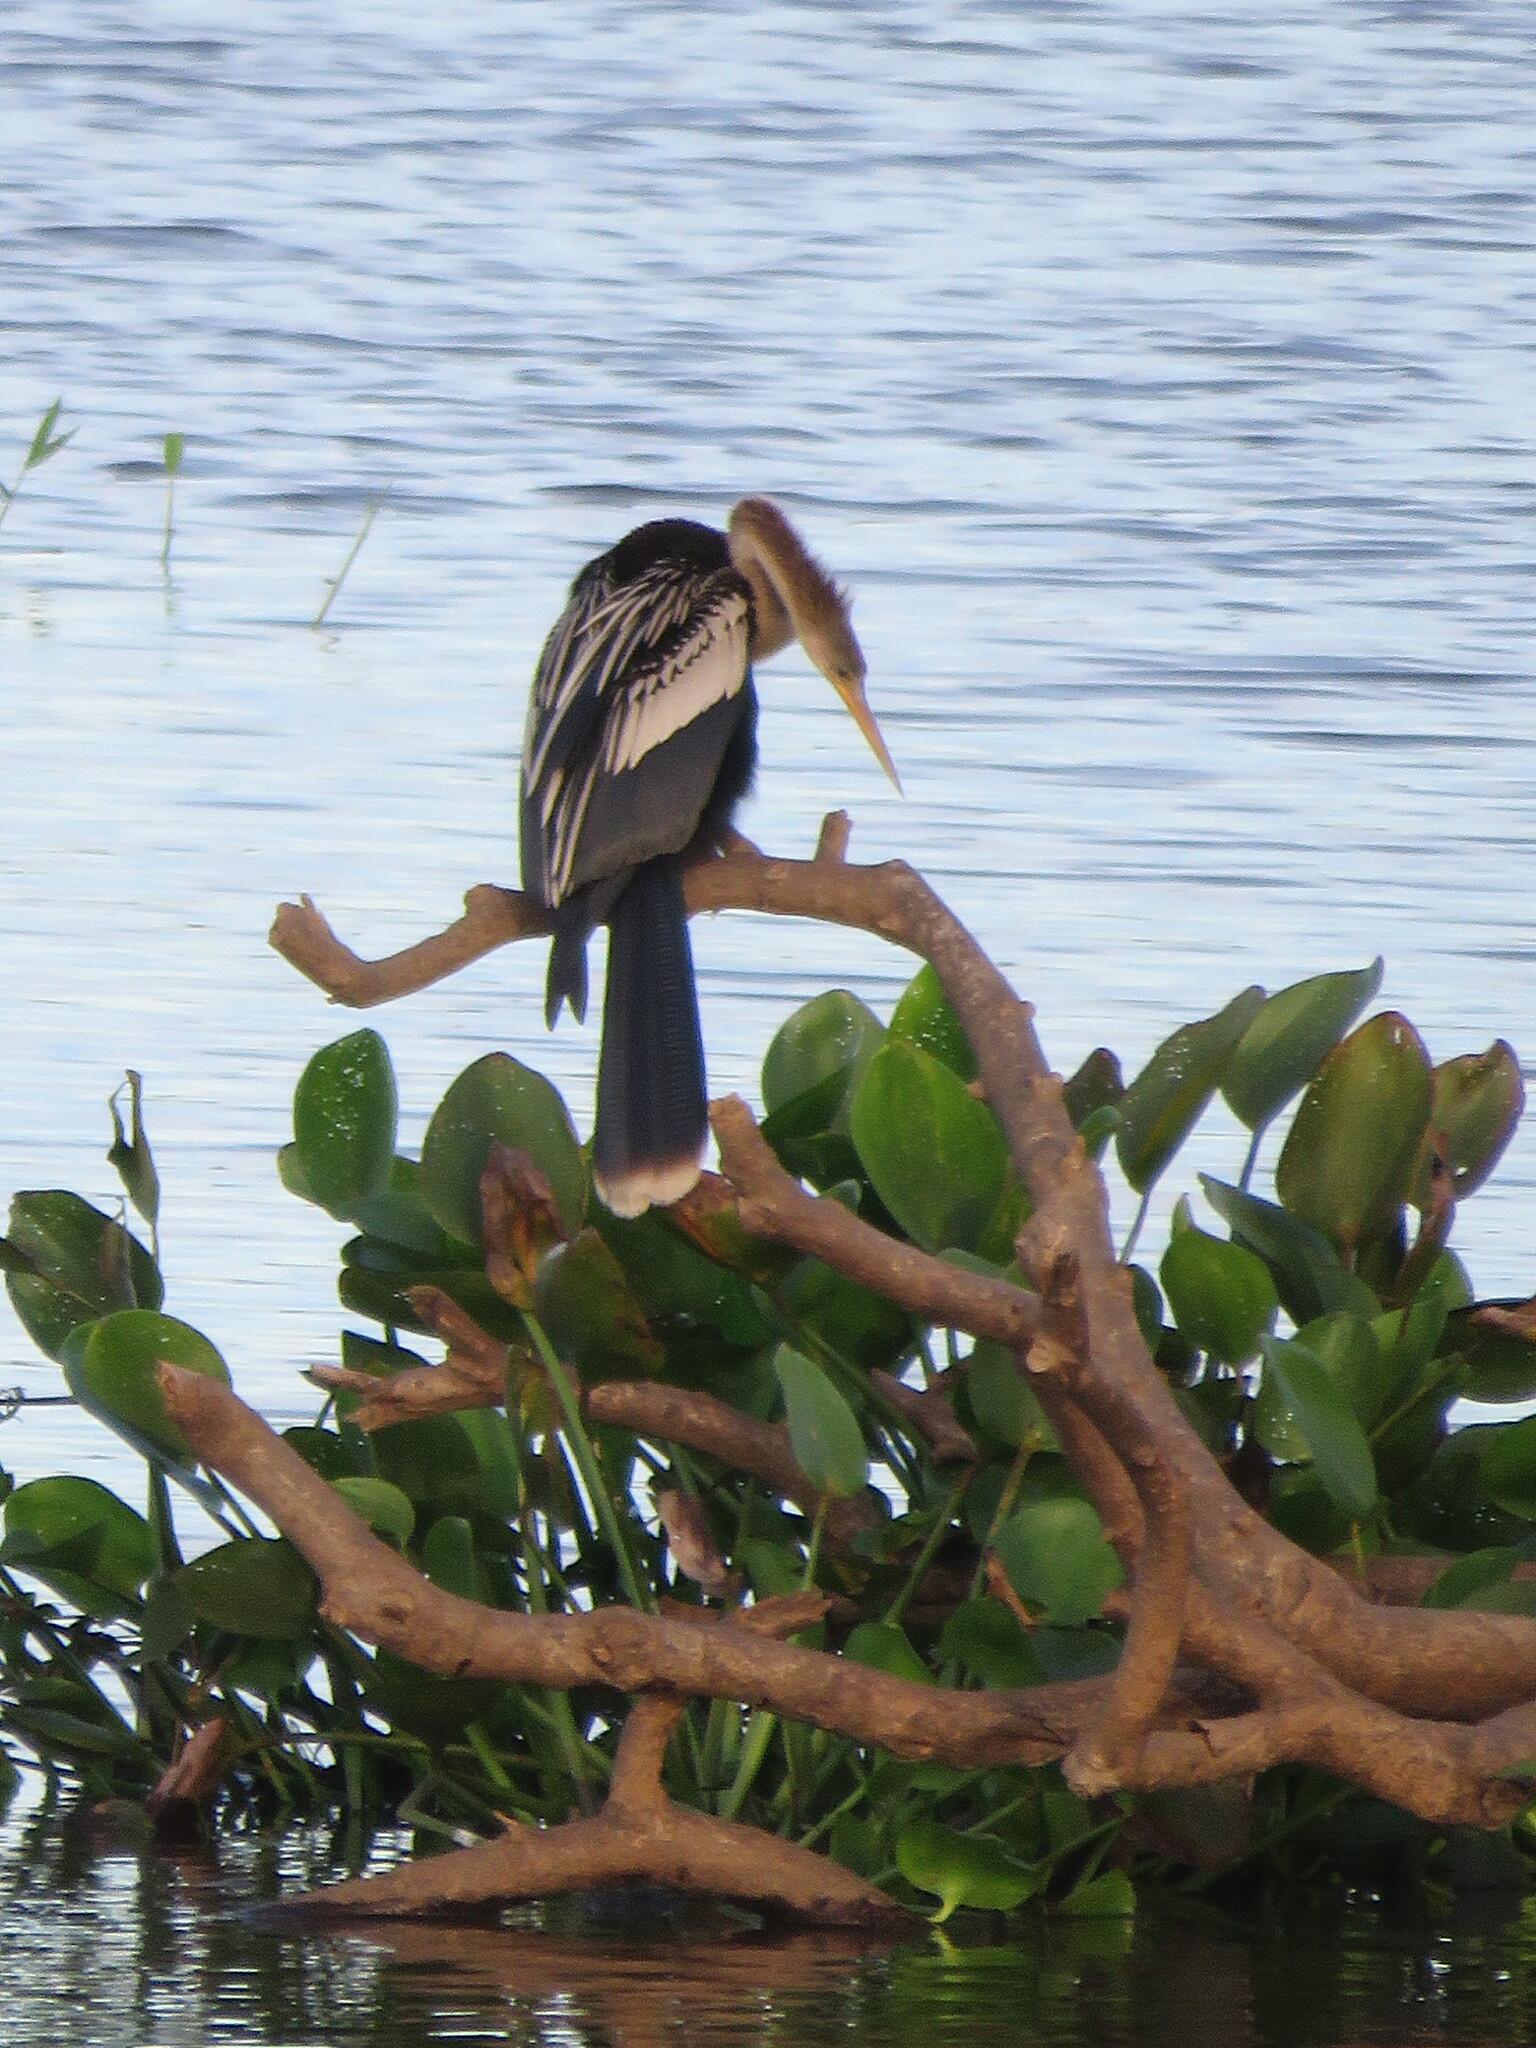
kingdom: Animalia
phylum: Chordata
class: Aves
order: Suliformes
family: Anhingidae
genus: Anhinga
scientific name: Anhinga anhinga
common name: Anhinga
